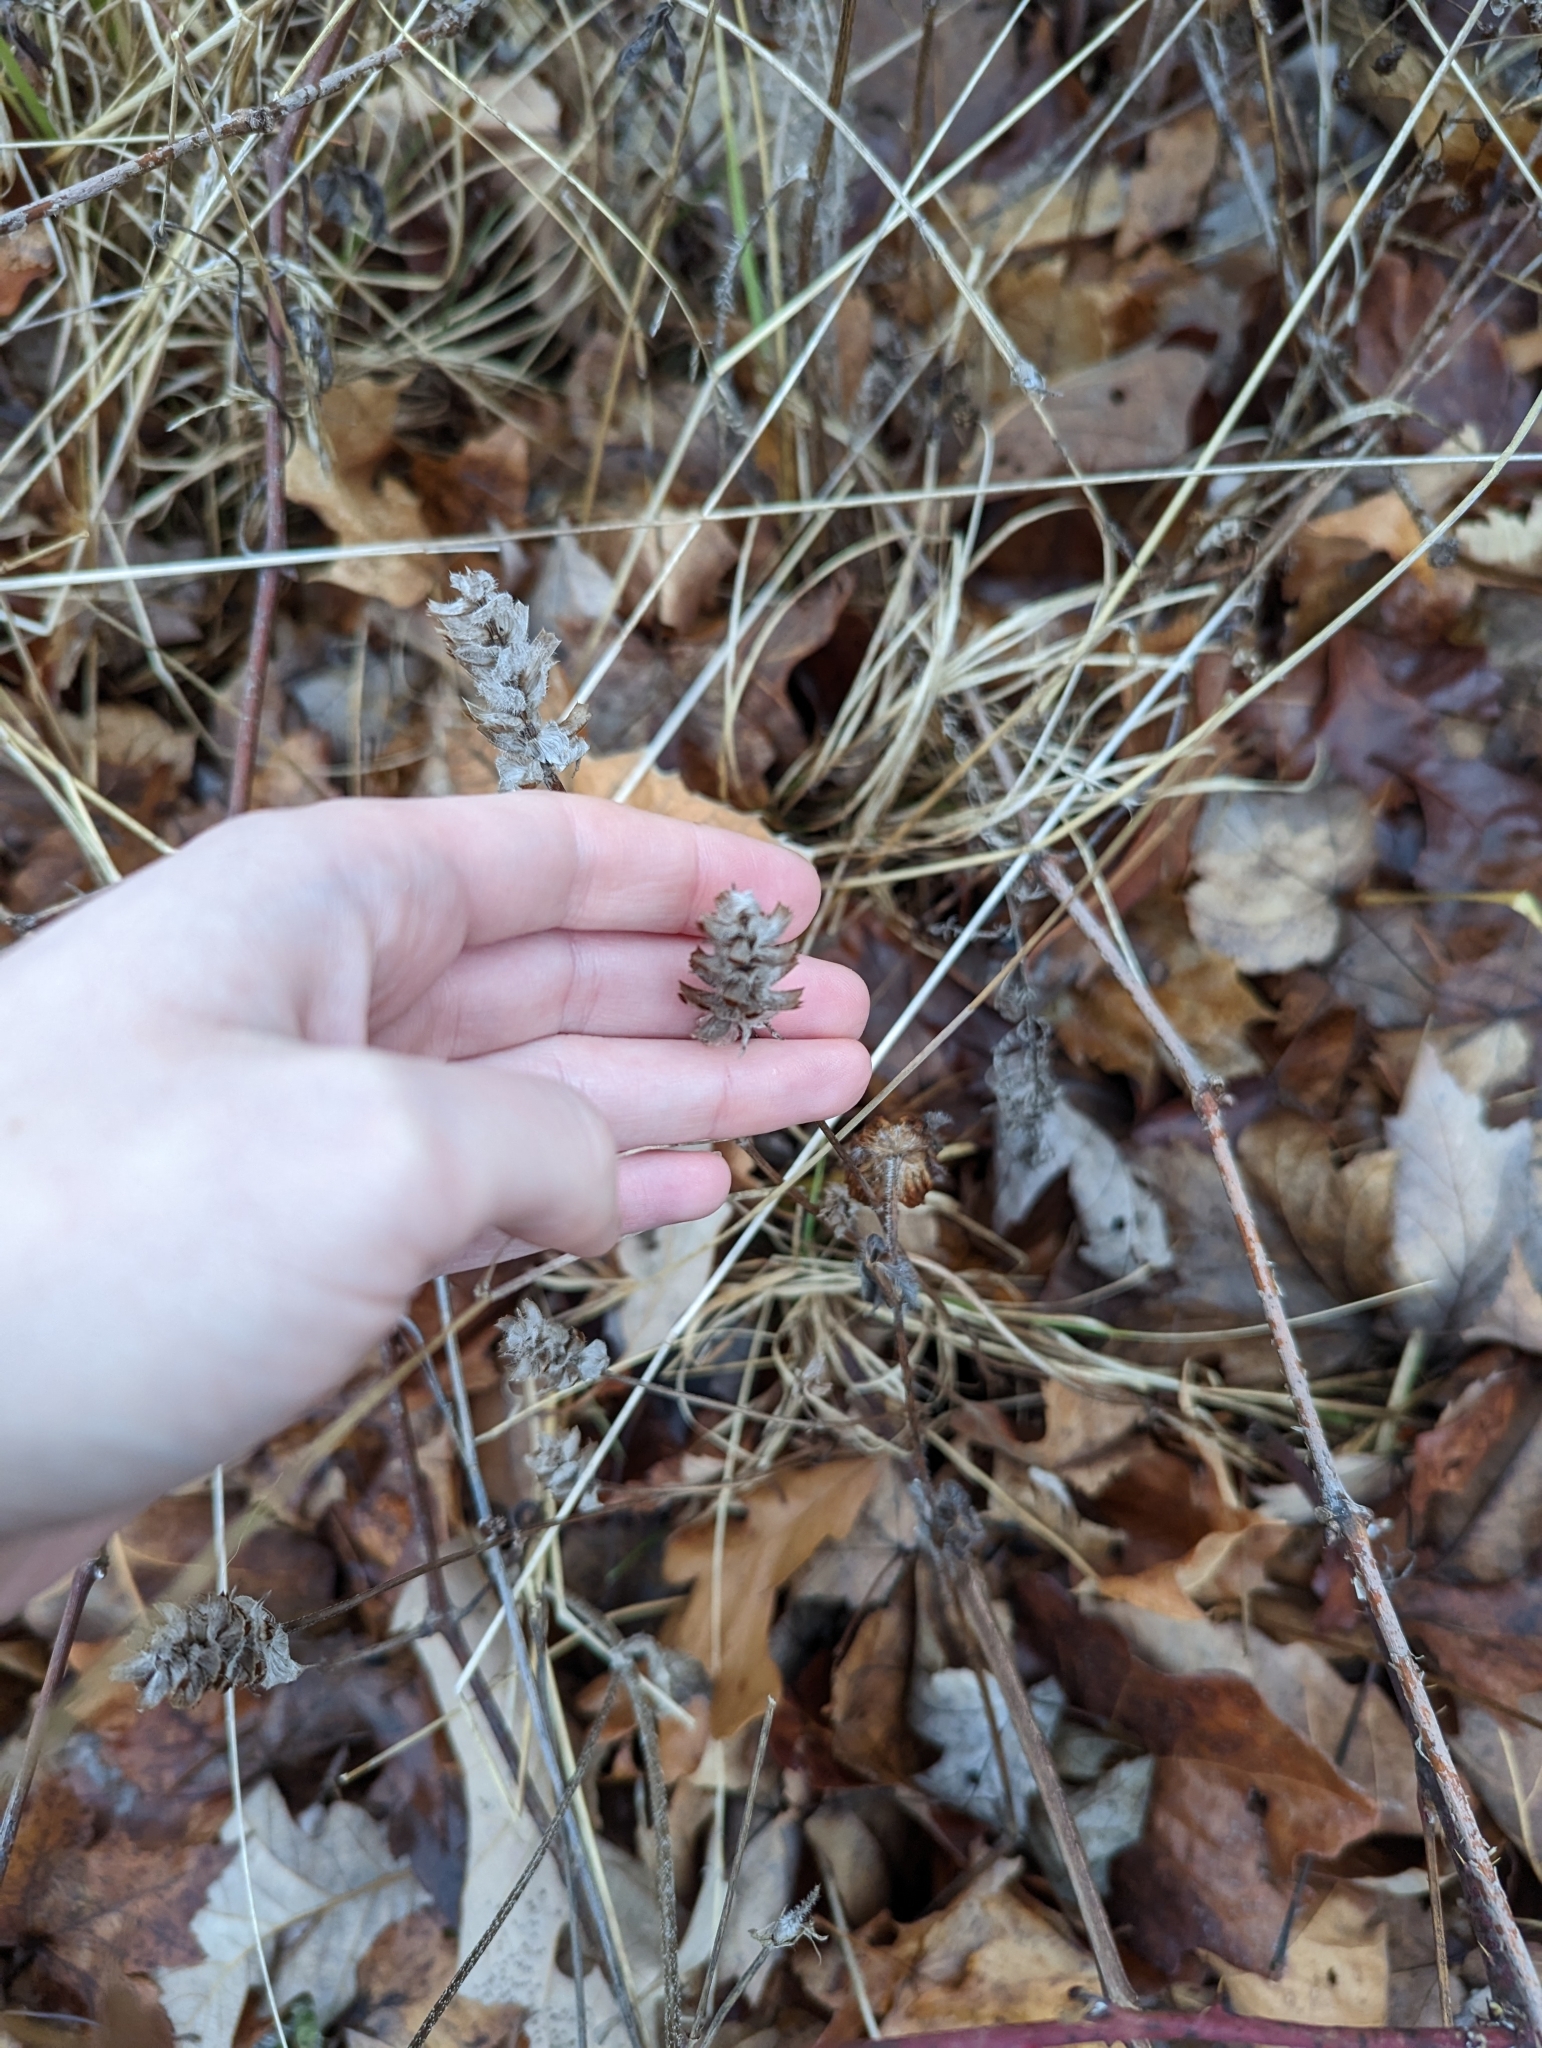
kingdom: Plantae
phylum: Tracheophyta
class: Magnoliopsida
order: Lamiales
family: Lamiaceae
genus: Prunella
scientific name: Prunella vulgaris
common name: Heal-all
